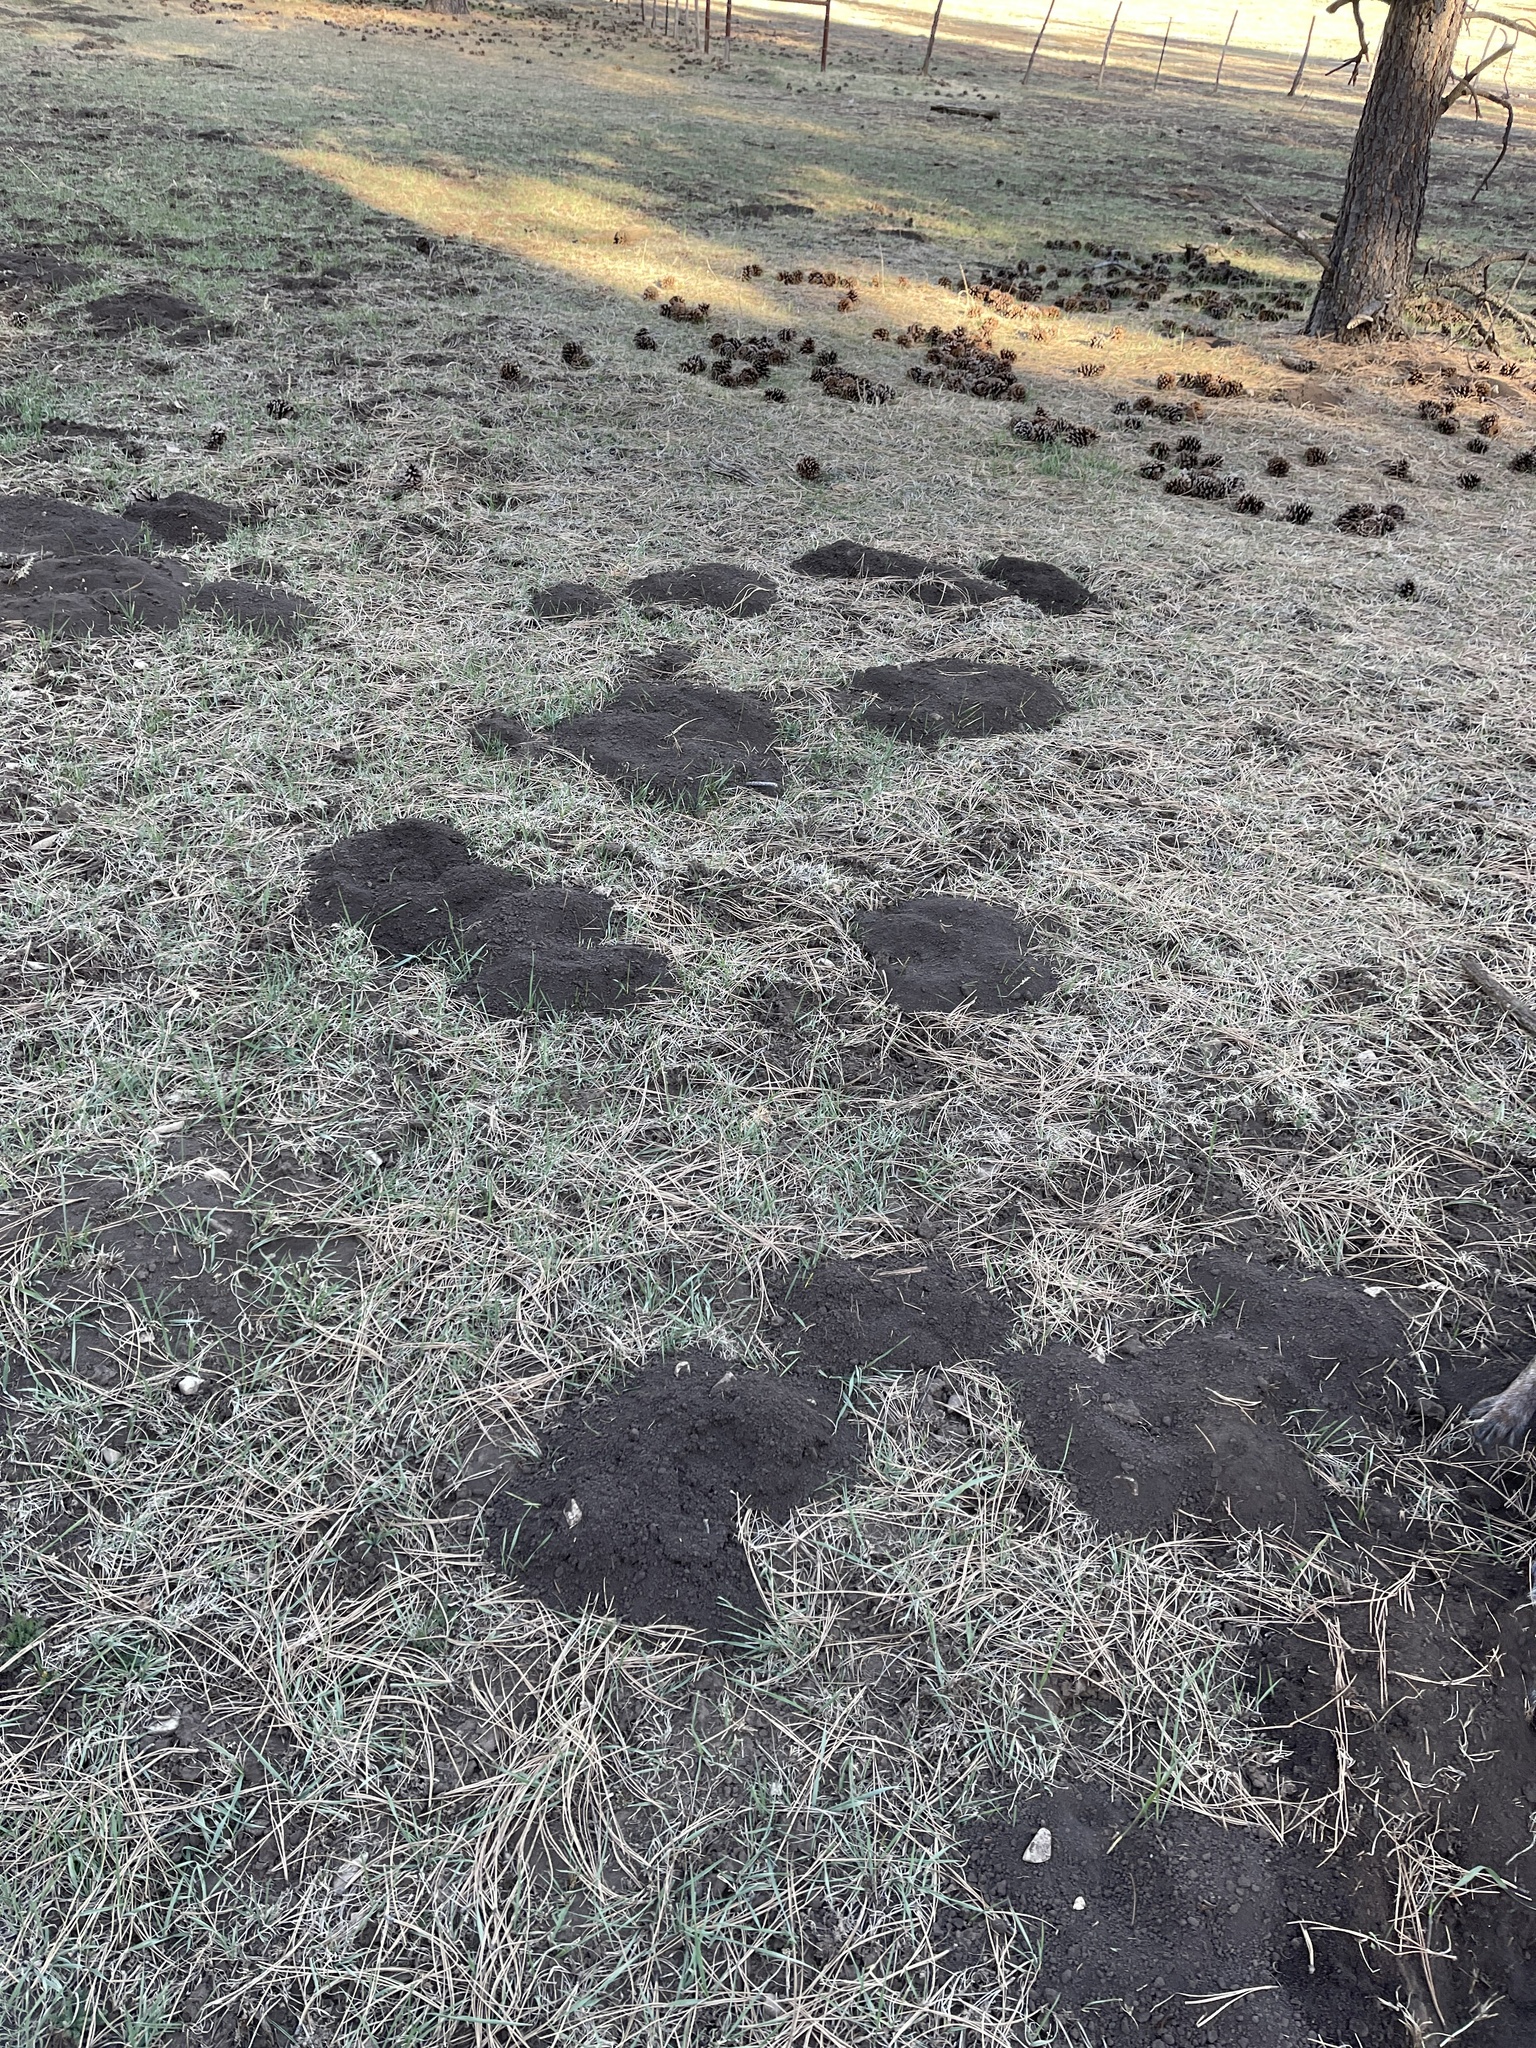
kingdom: Animalia
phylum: Chordata
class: Mammalia
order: Rodentia
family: Geomyidae
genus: Thomomys
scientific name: Thomomys bottae
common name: Botta's pocket gopher
